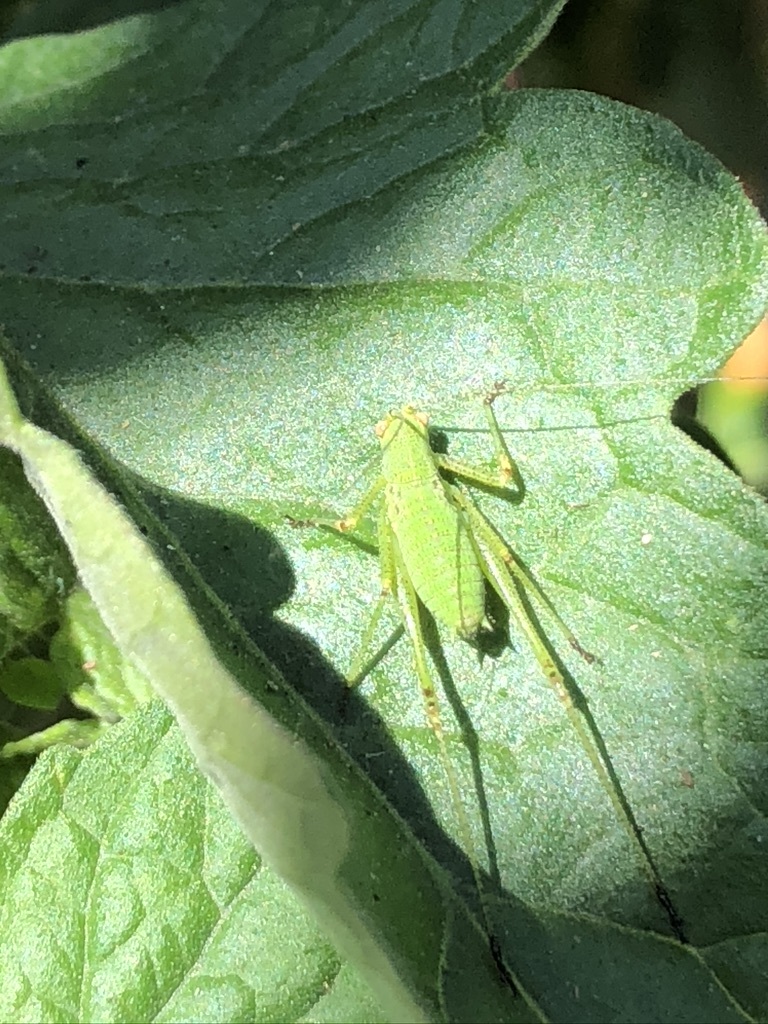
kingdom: Animalia
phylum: Arthropoda
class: Insecta
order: Orthoptera
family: Tettigoniidae
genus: Phaneroptera
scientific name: Phaneroptera nana
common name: Southern sickle bush-cricket
